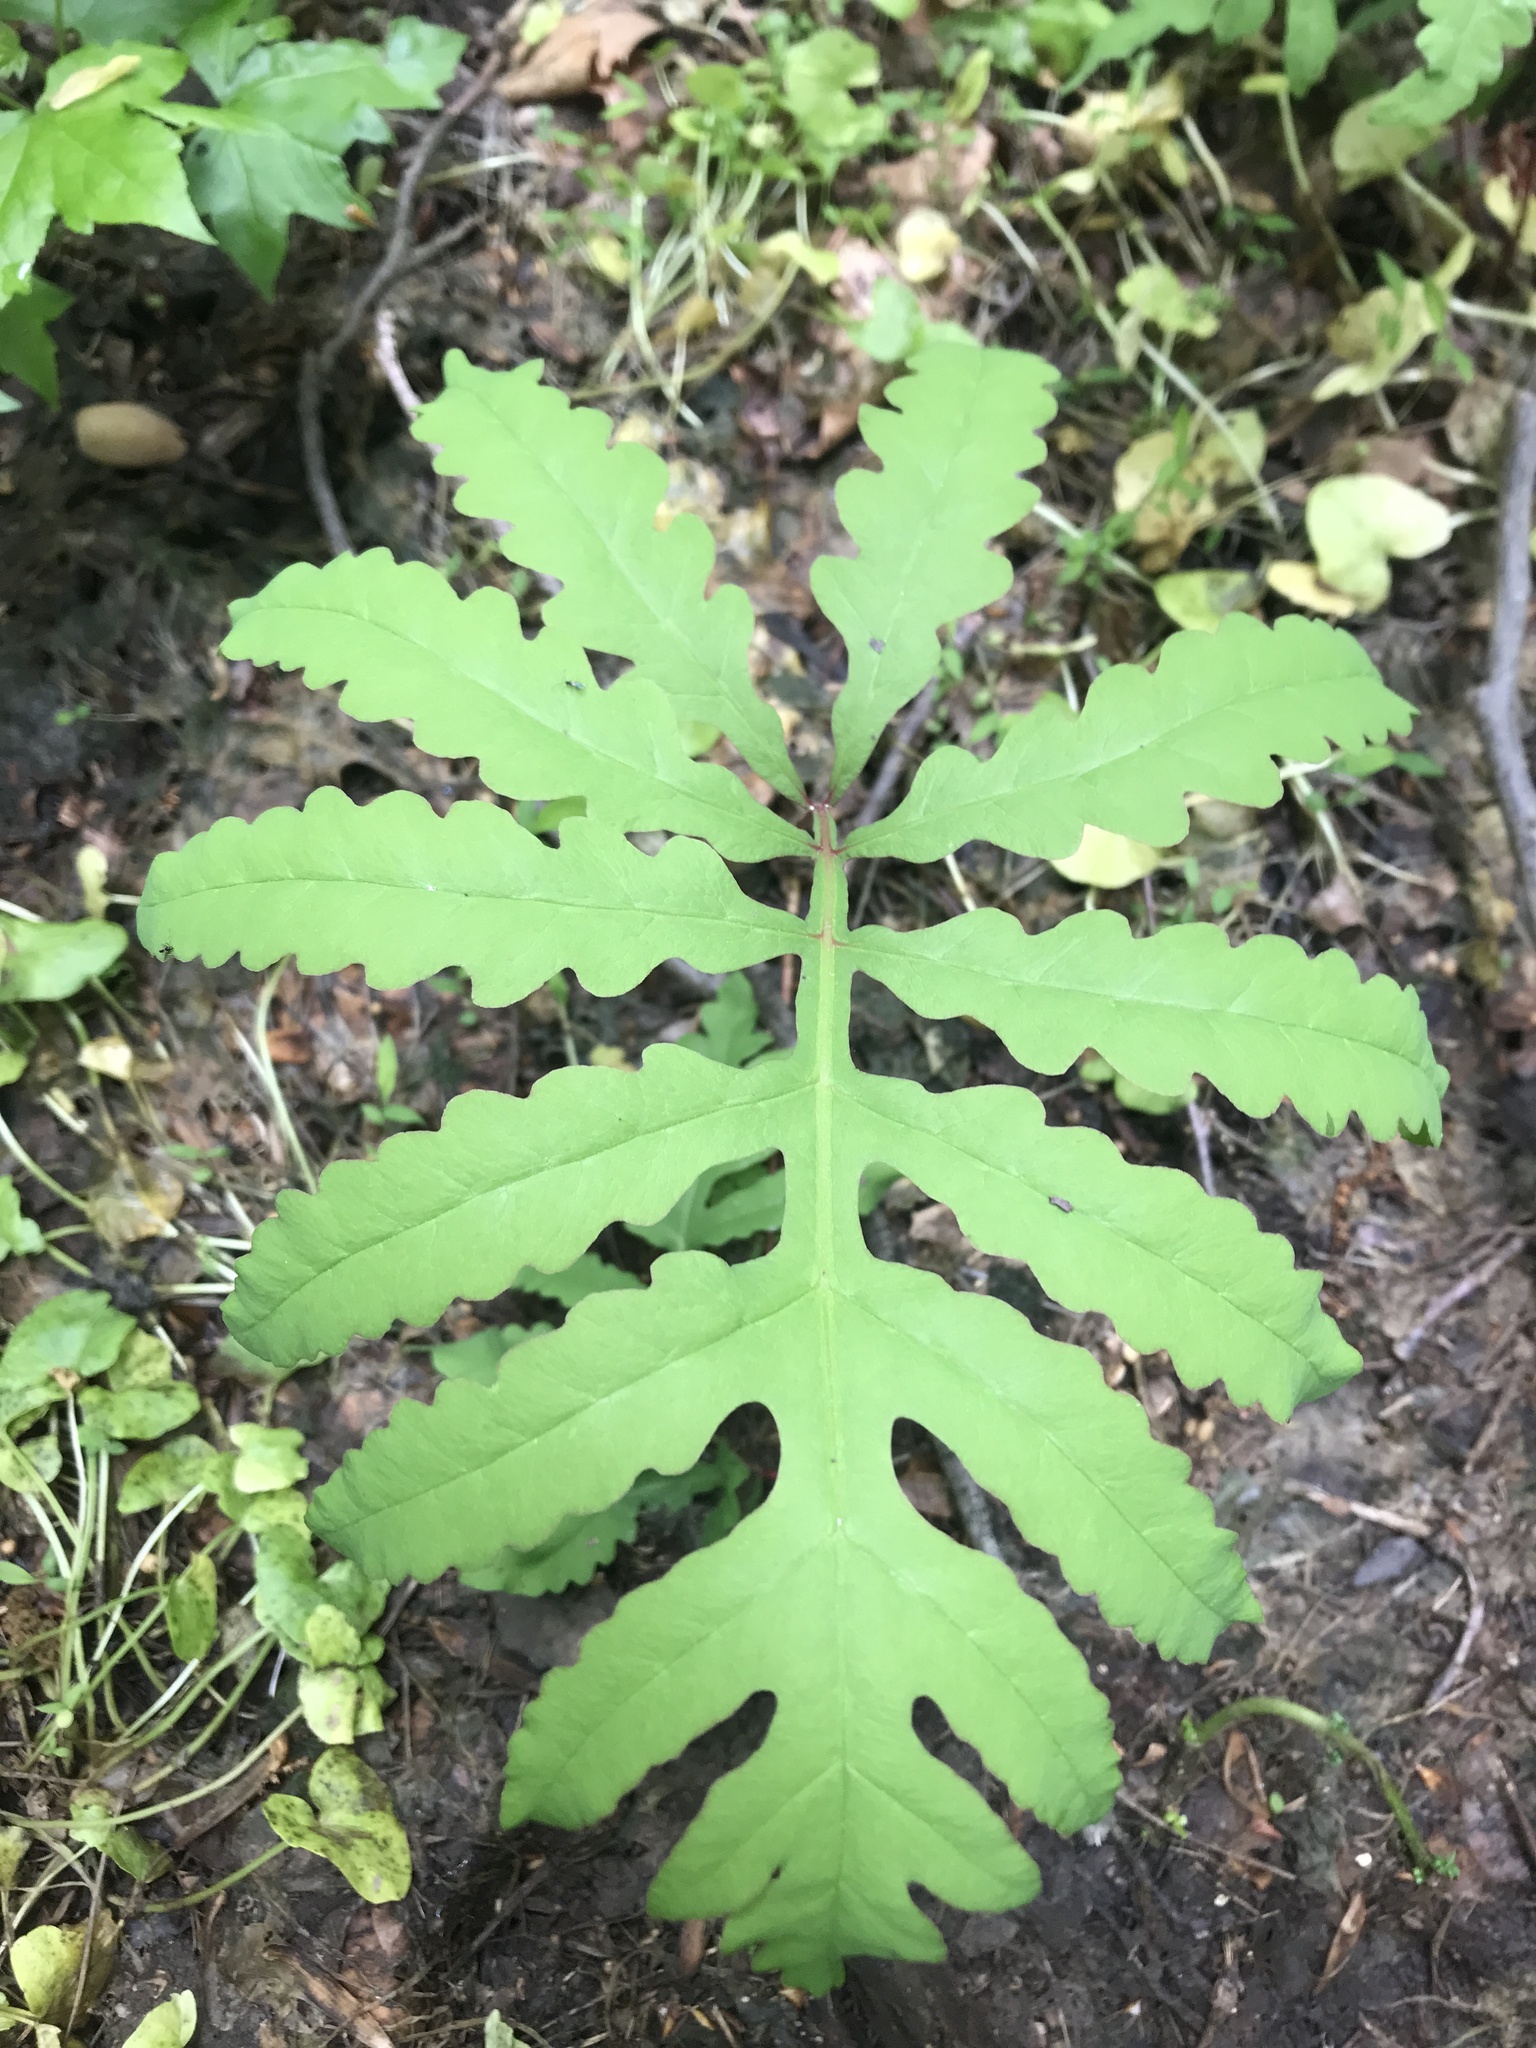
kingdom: Plantae
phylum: Tracheophyta
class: Polypodiopsida
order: Polypodiales
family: Onocleaceae
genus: Onoclea
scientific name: Onoclea sensibilis
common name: Sensitive fern
